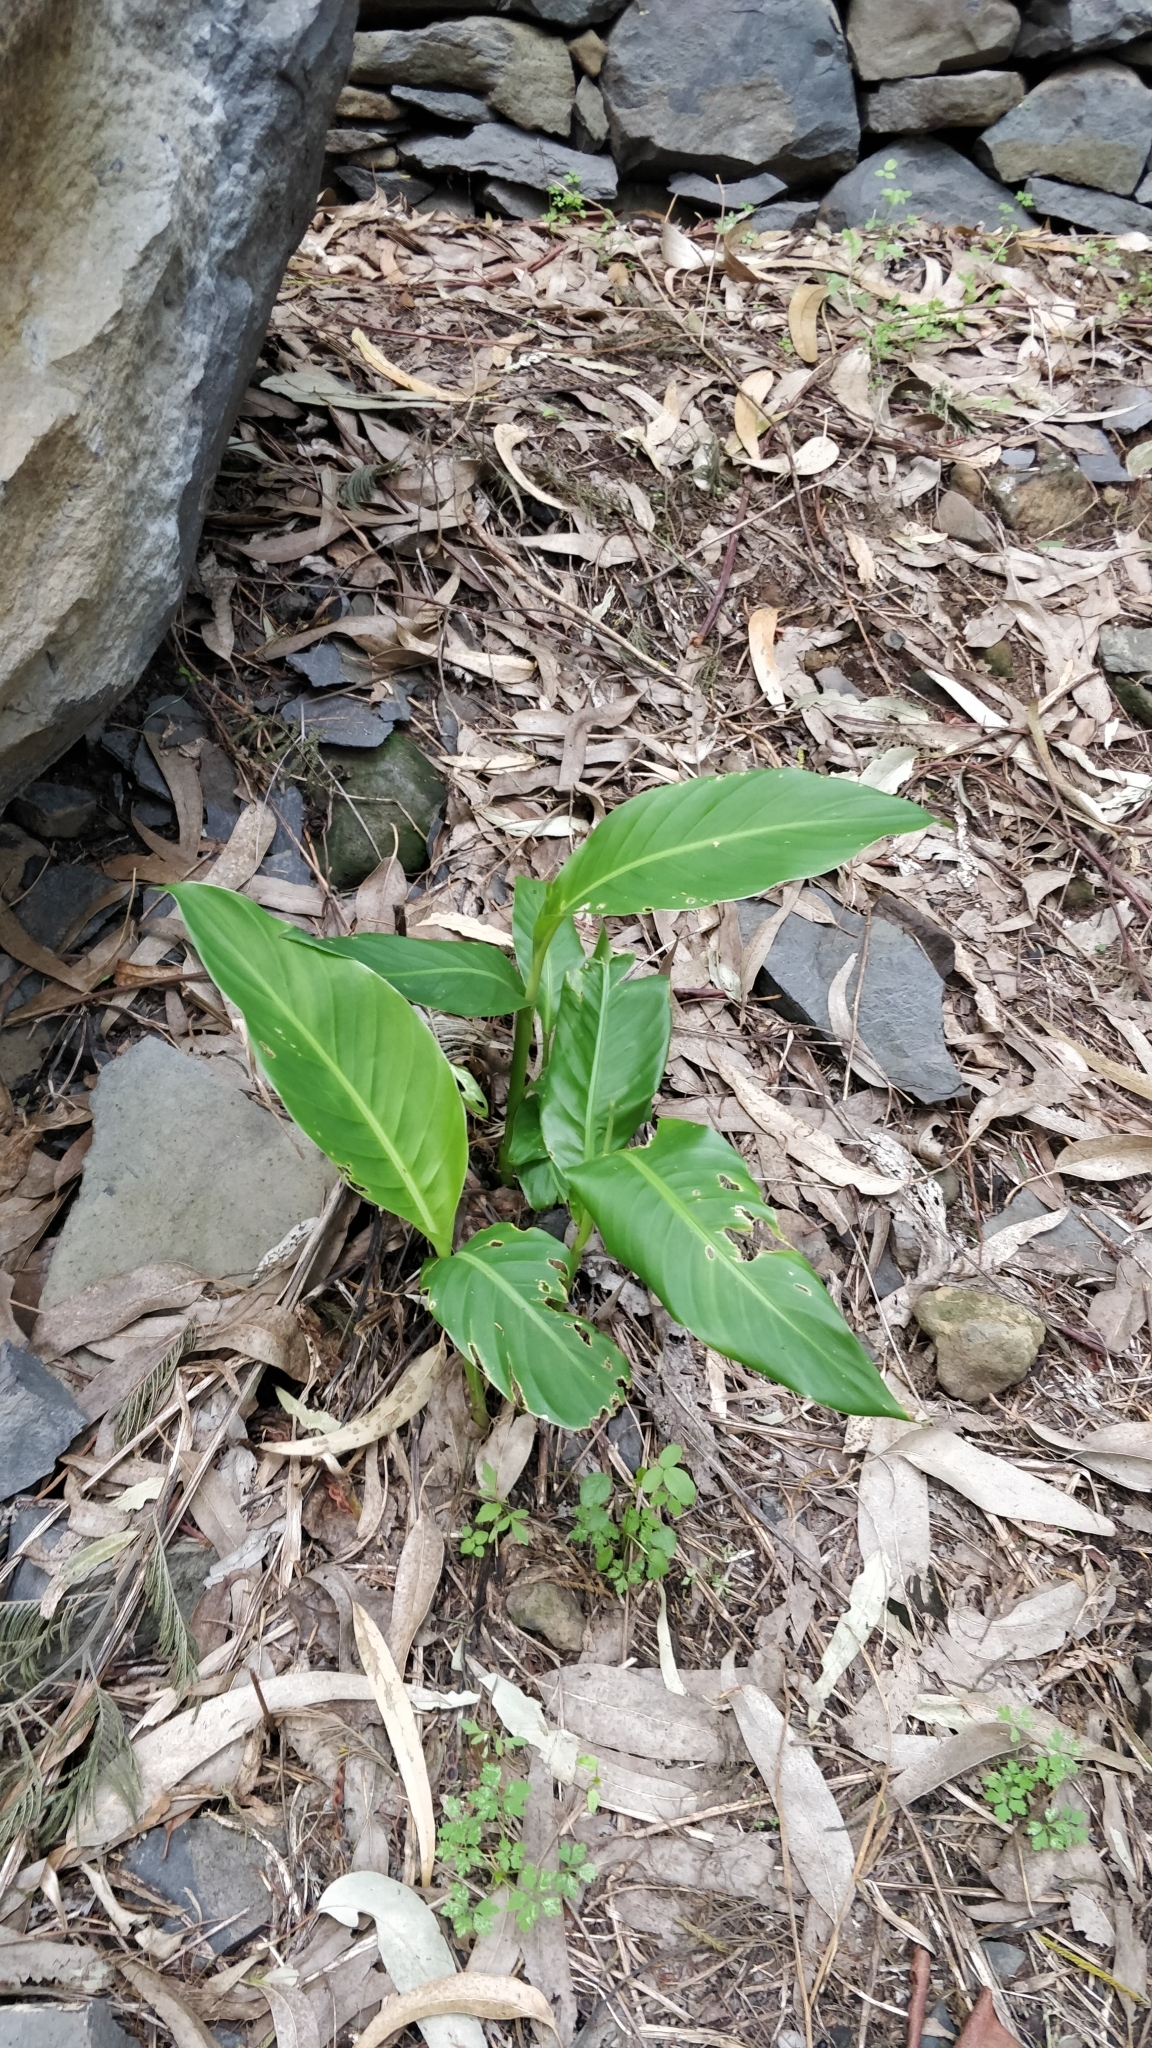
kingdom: Plantae
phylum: Tracheophyta
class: Liliopsida
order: Zingiberales
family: Cannaceae
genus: Canna
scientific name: Canna indica
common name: Indian shot
